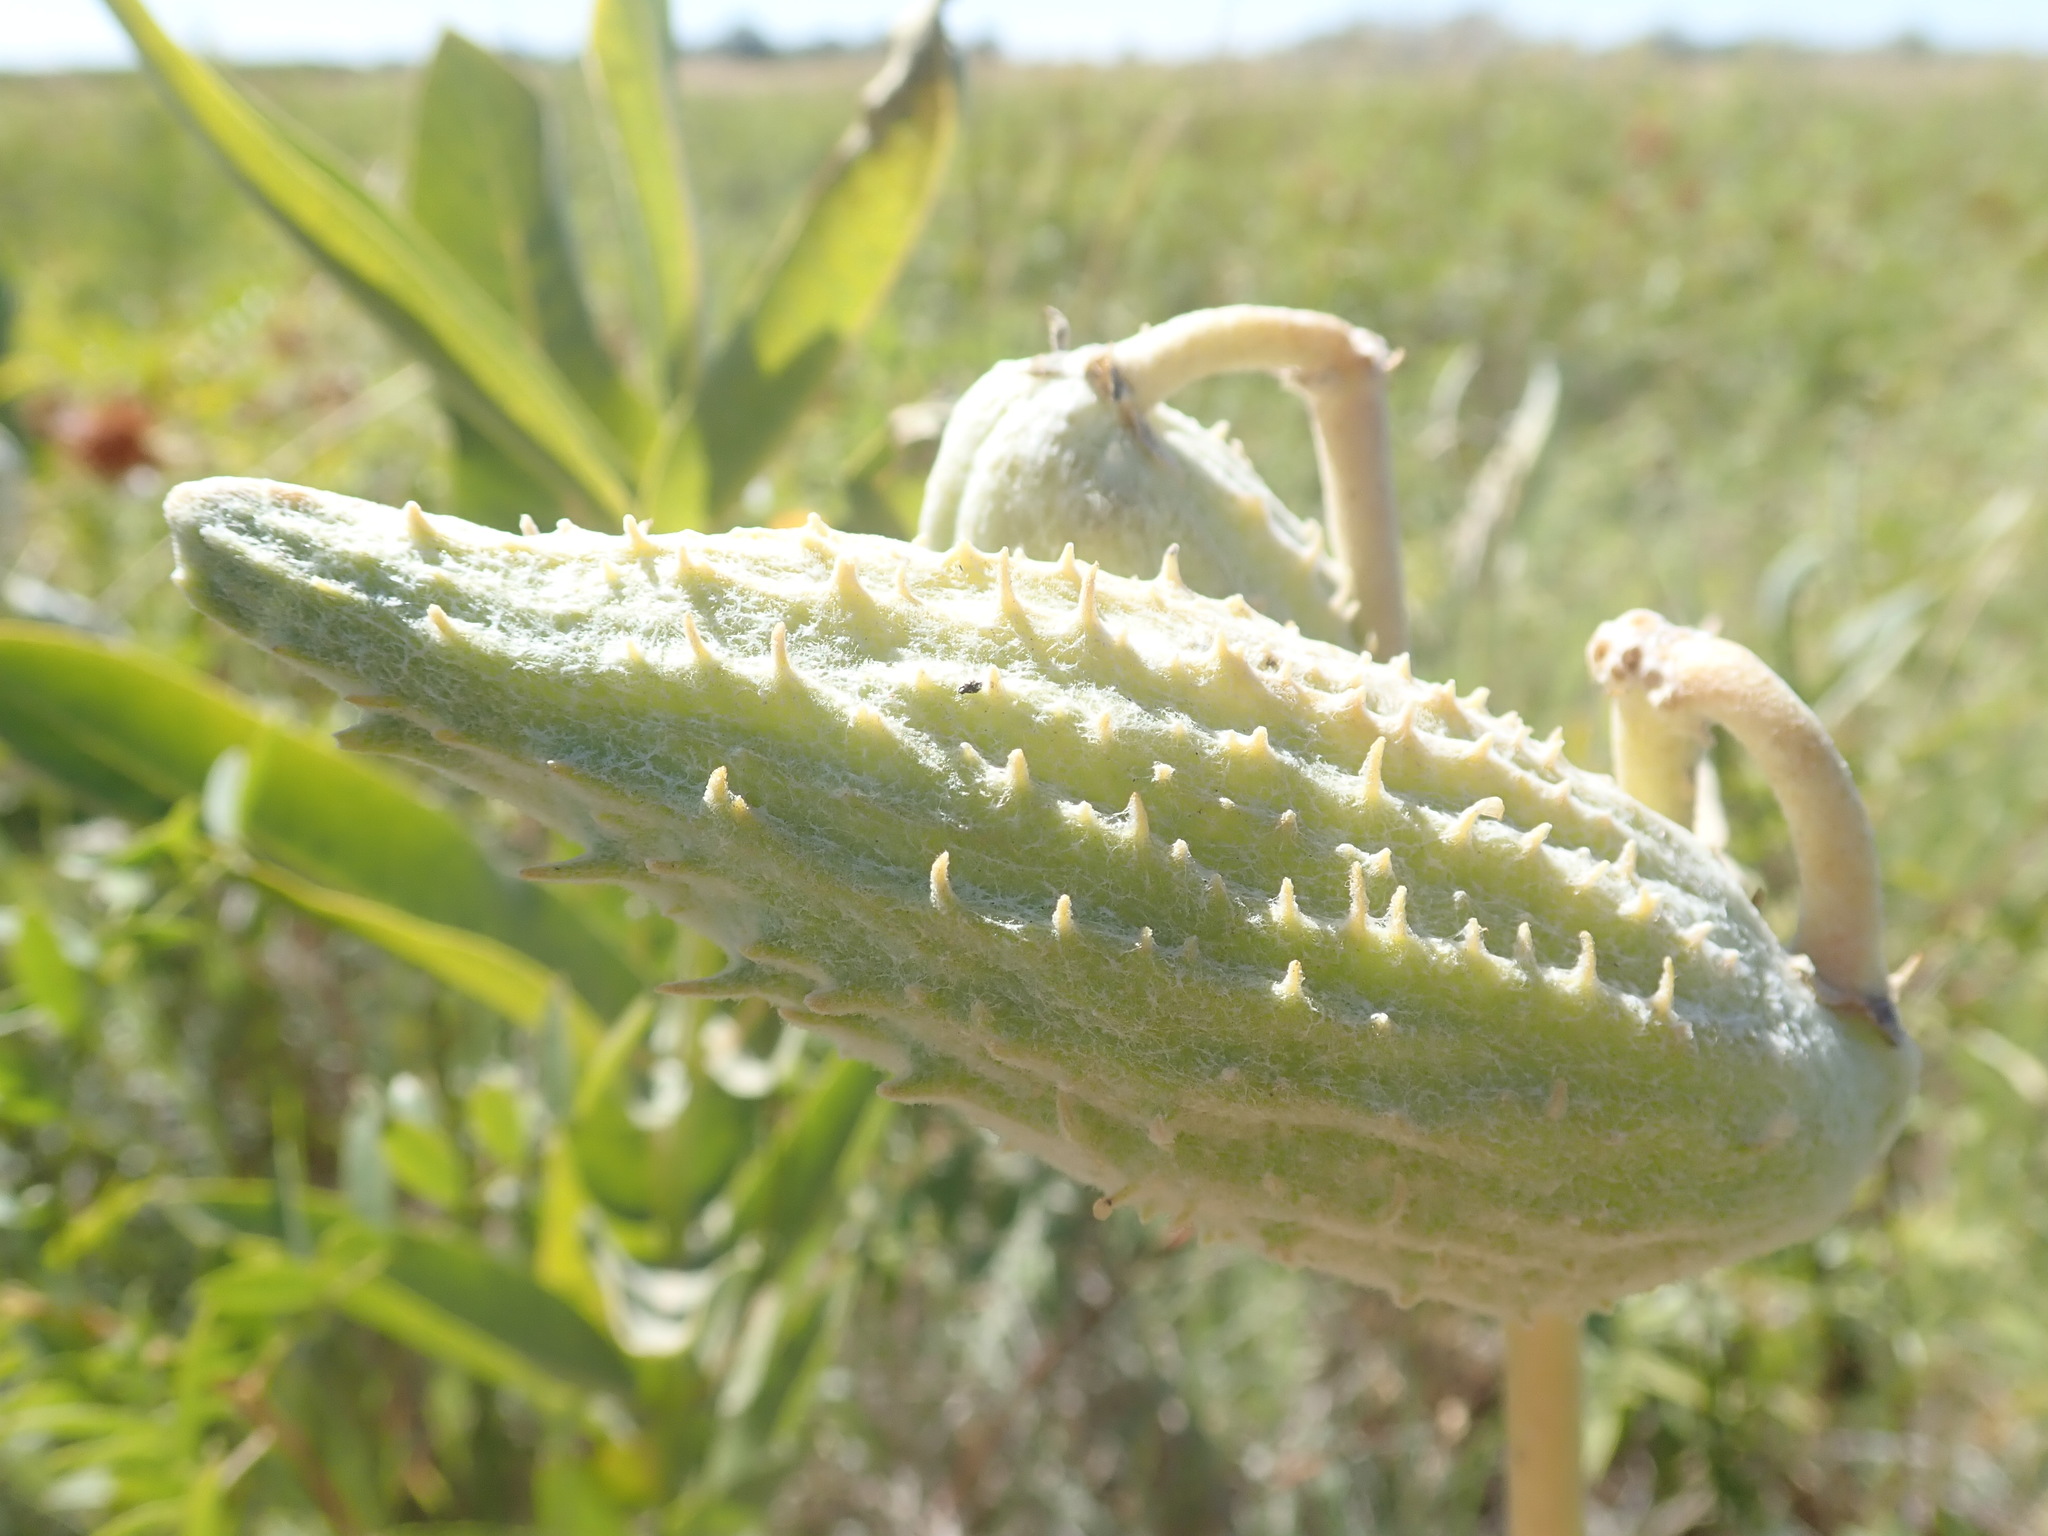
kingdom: Plantae
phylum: Tracheophyta
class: Magnoliopsida
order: Gentianales
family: Apocynaceae
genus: Asclepias
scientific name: Asclepias speciosa
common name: Showy milkweed
